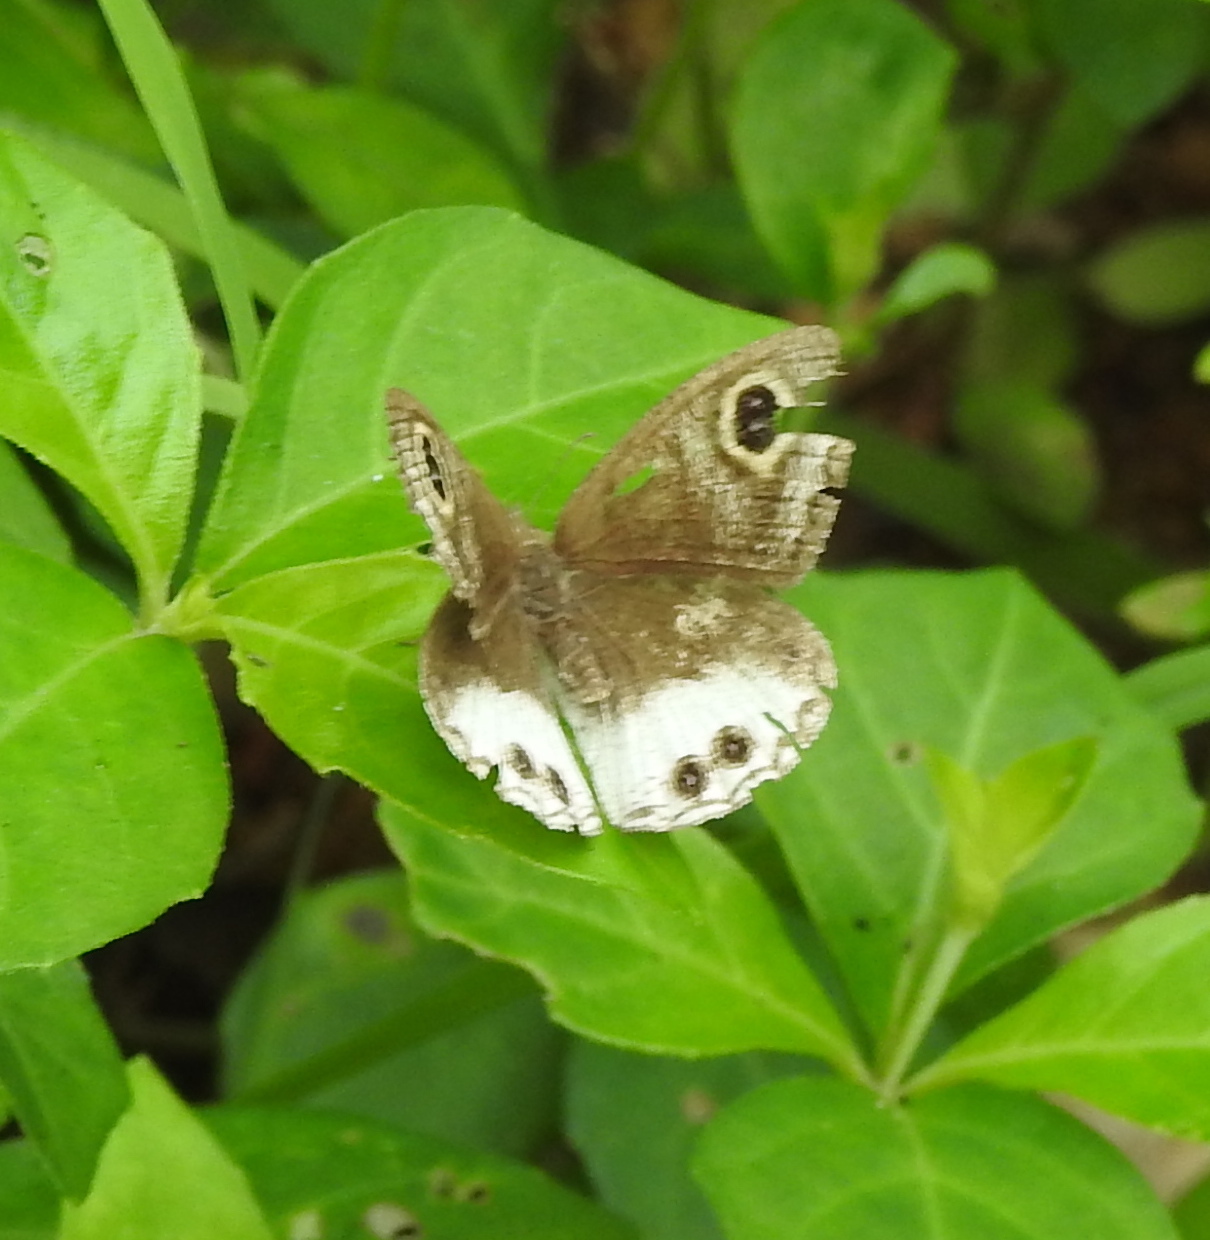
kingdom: Animalia
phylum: Arthropoda
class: Insecta
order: Lepidoptera
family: Nymphalidae
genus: Ypthima
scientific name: Ypthima ceylonica
